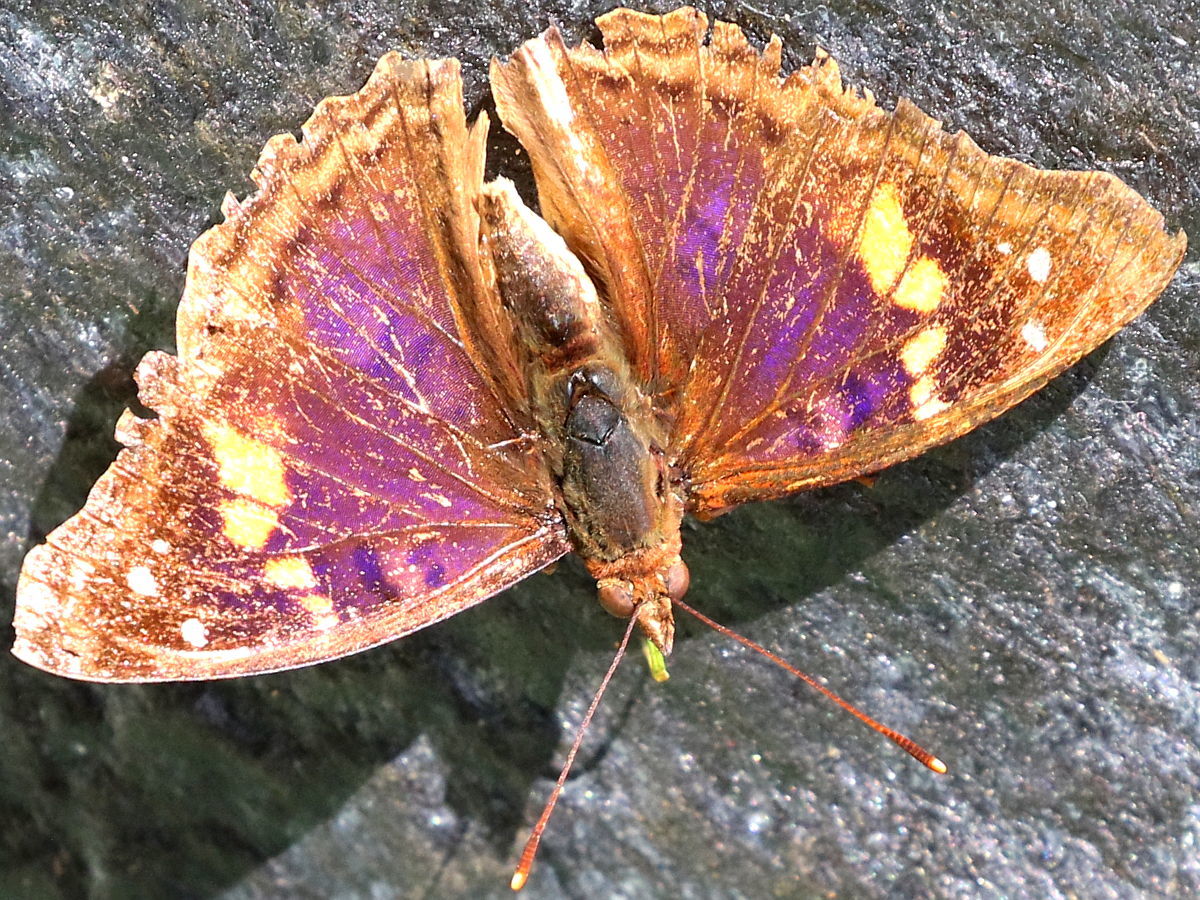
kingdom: Animalia
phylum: Arthropoda
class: Insecta
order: Lepidoptera
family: Nymphalidae
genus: Doxocopa
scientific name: Doxocopa agathina
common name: Agathina emperor
